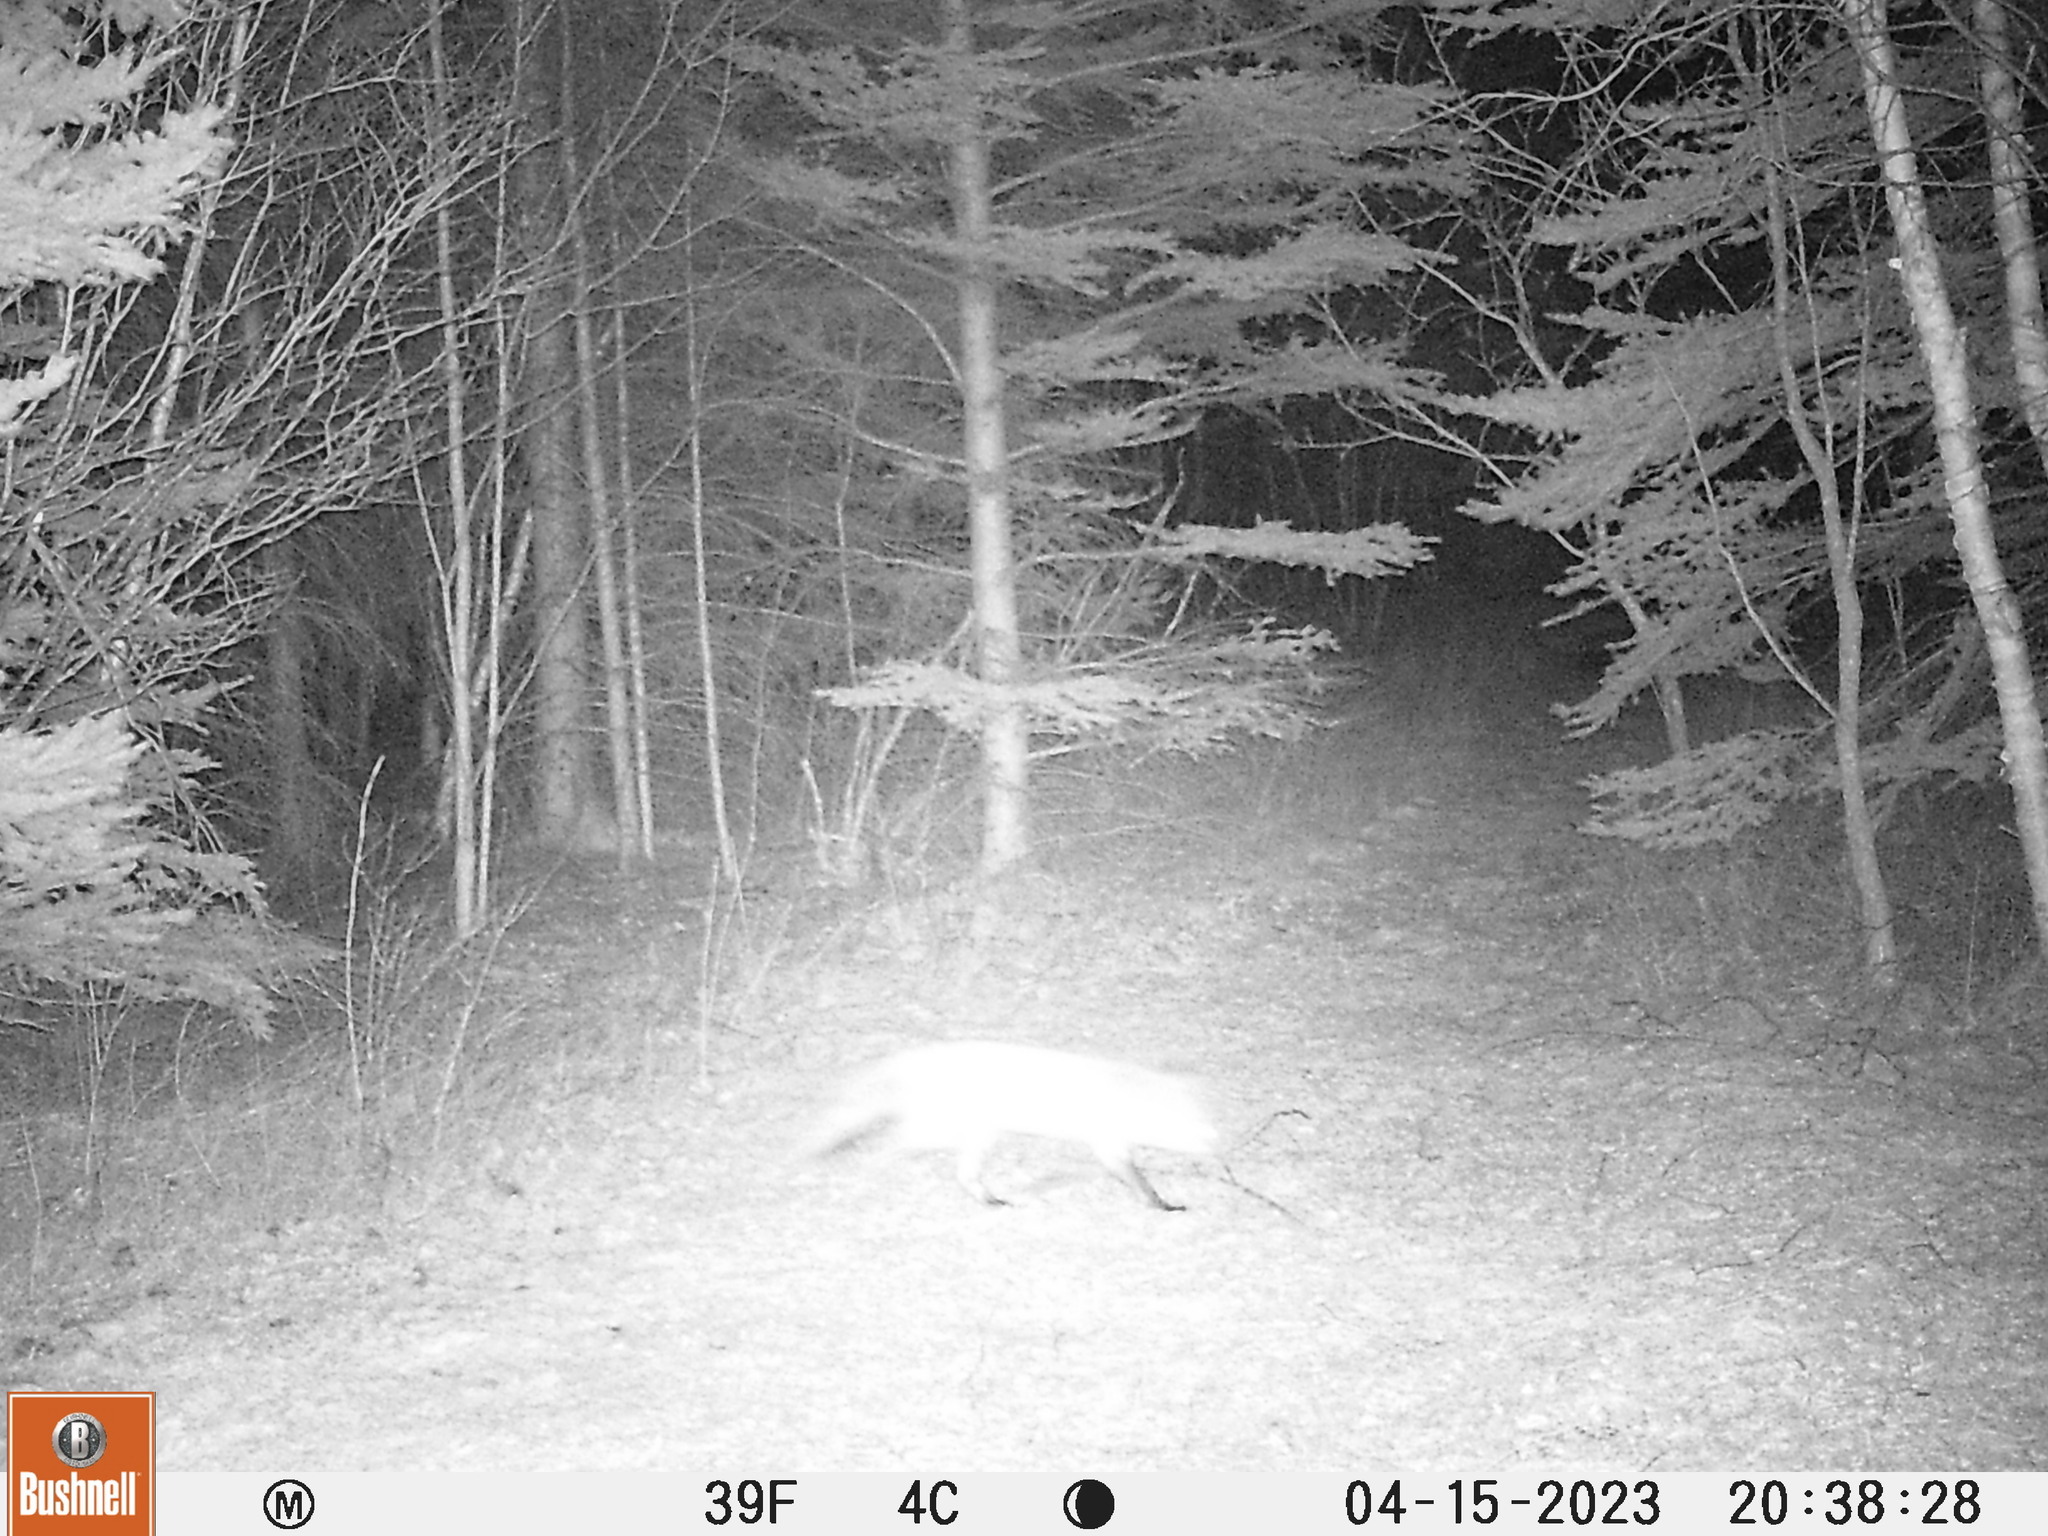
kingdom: Animalia
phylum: Chordata
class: Mammalia
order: Carnivora
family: Canidae
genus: Vulpes
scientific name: Vulpes vulpes
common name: Red fox
